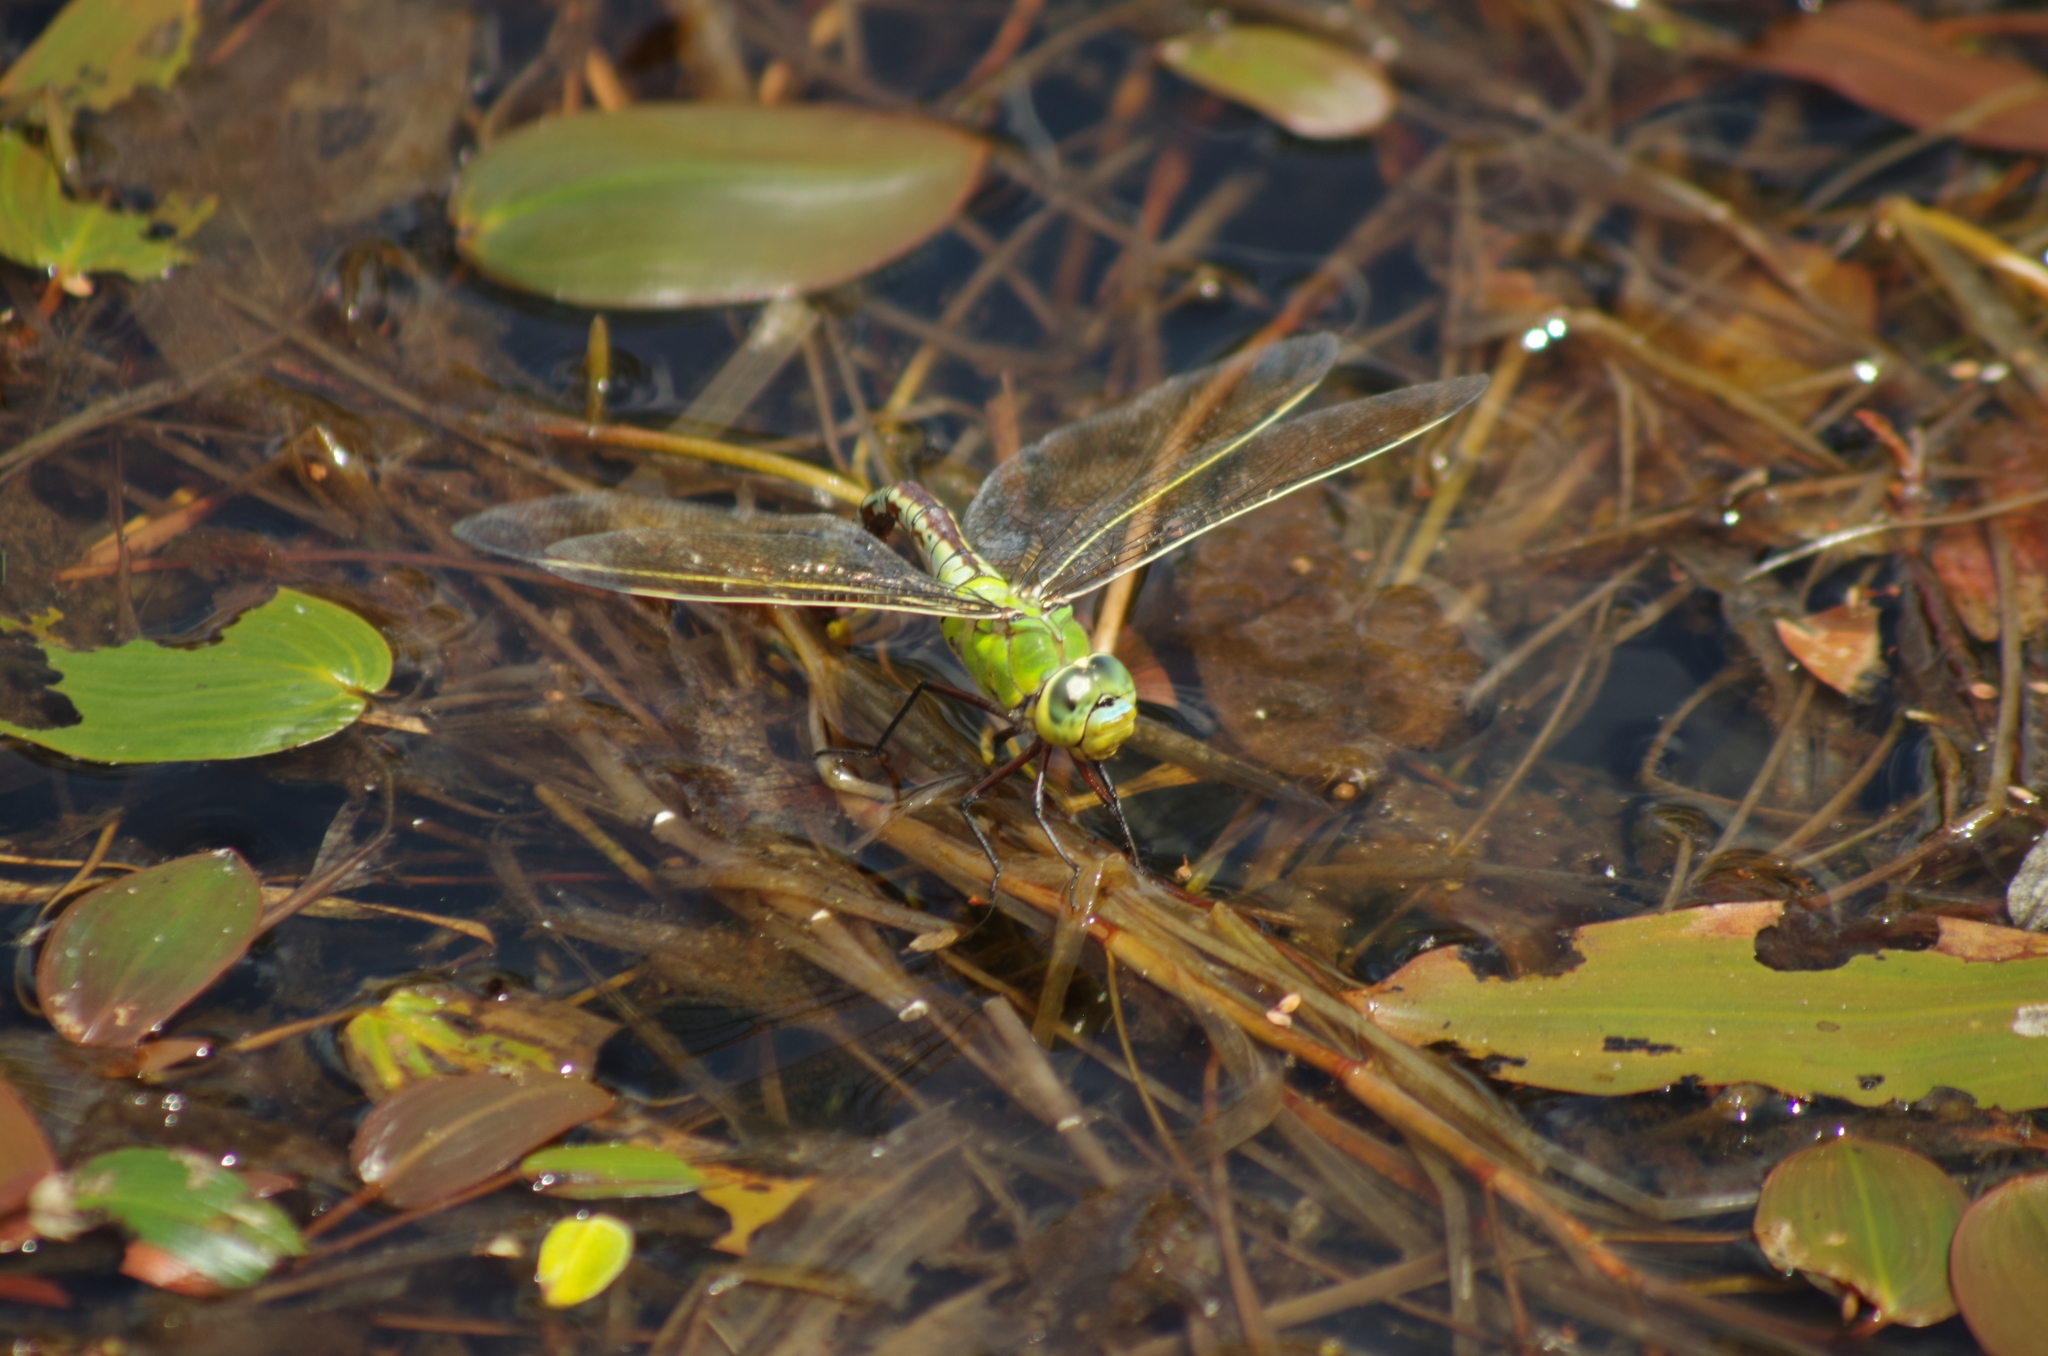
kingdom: Animalia
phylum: Arthropoda
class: Insecta
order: Odonata
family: Aeshnidae
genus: Anax
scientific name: Anax imperator
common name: Emperor dragonfly
